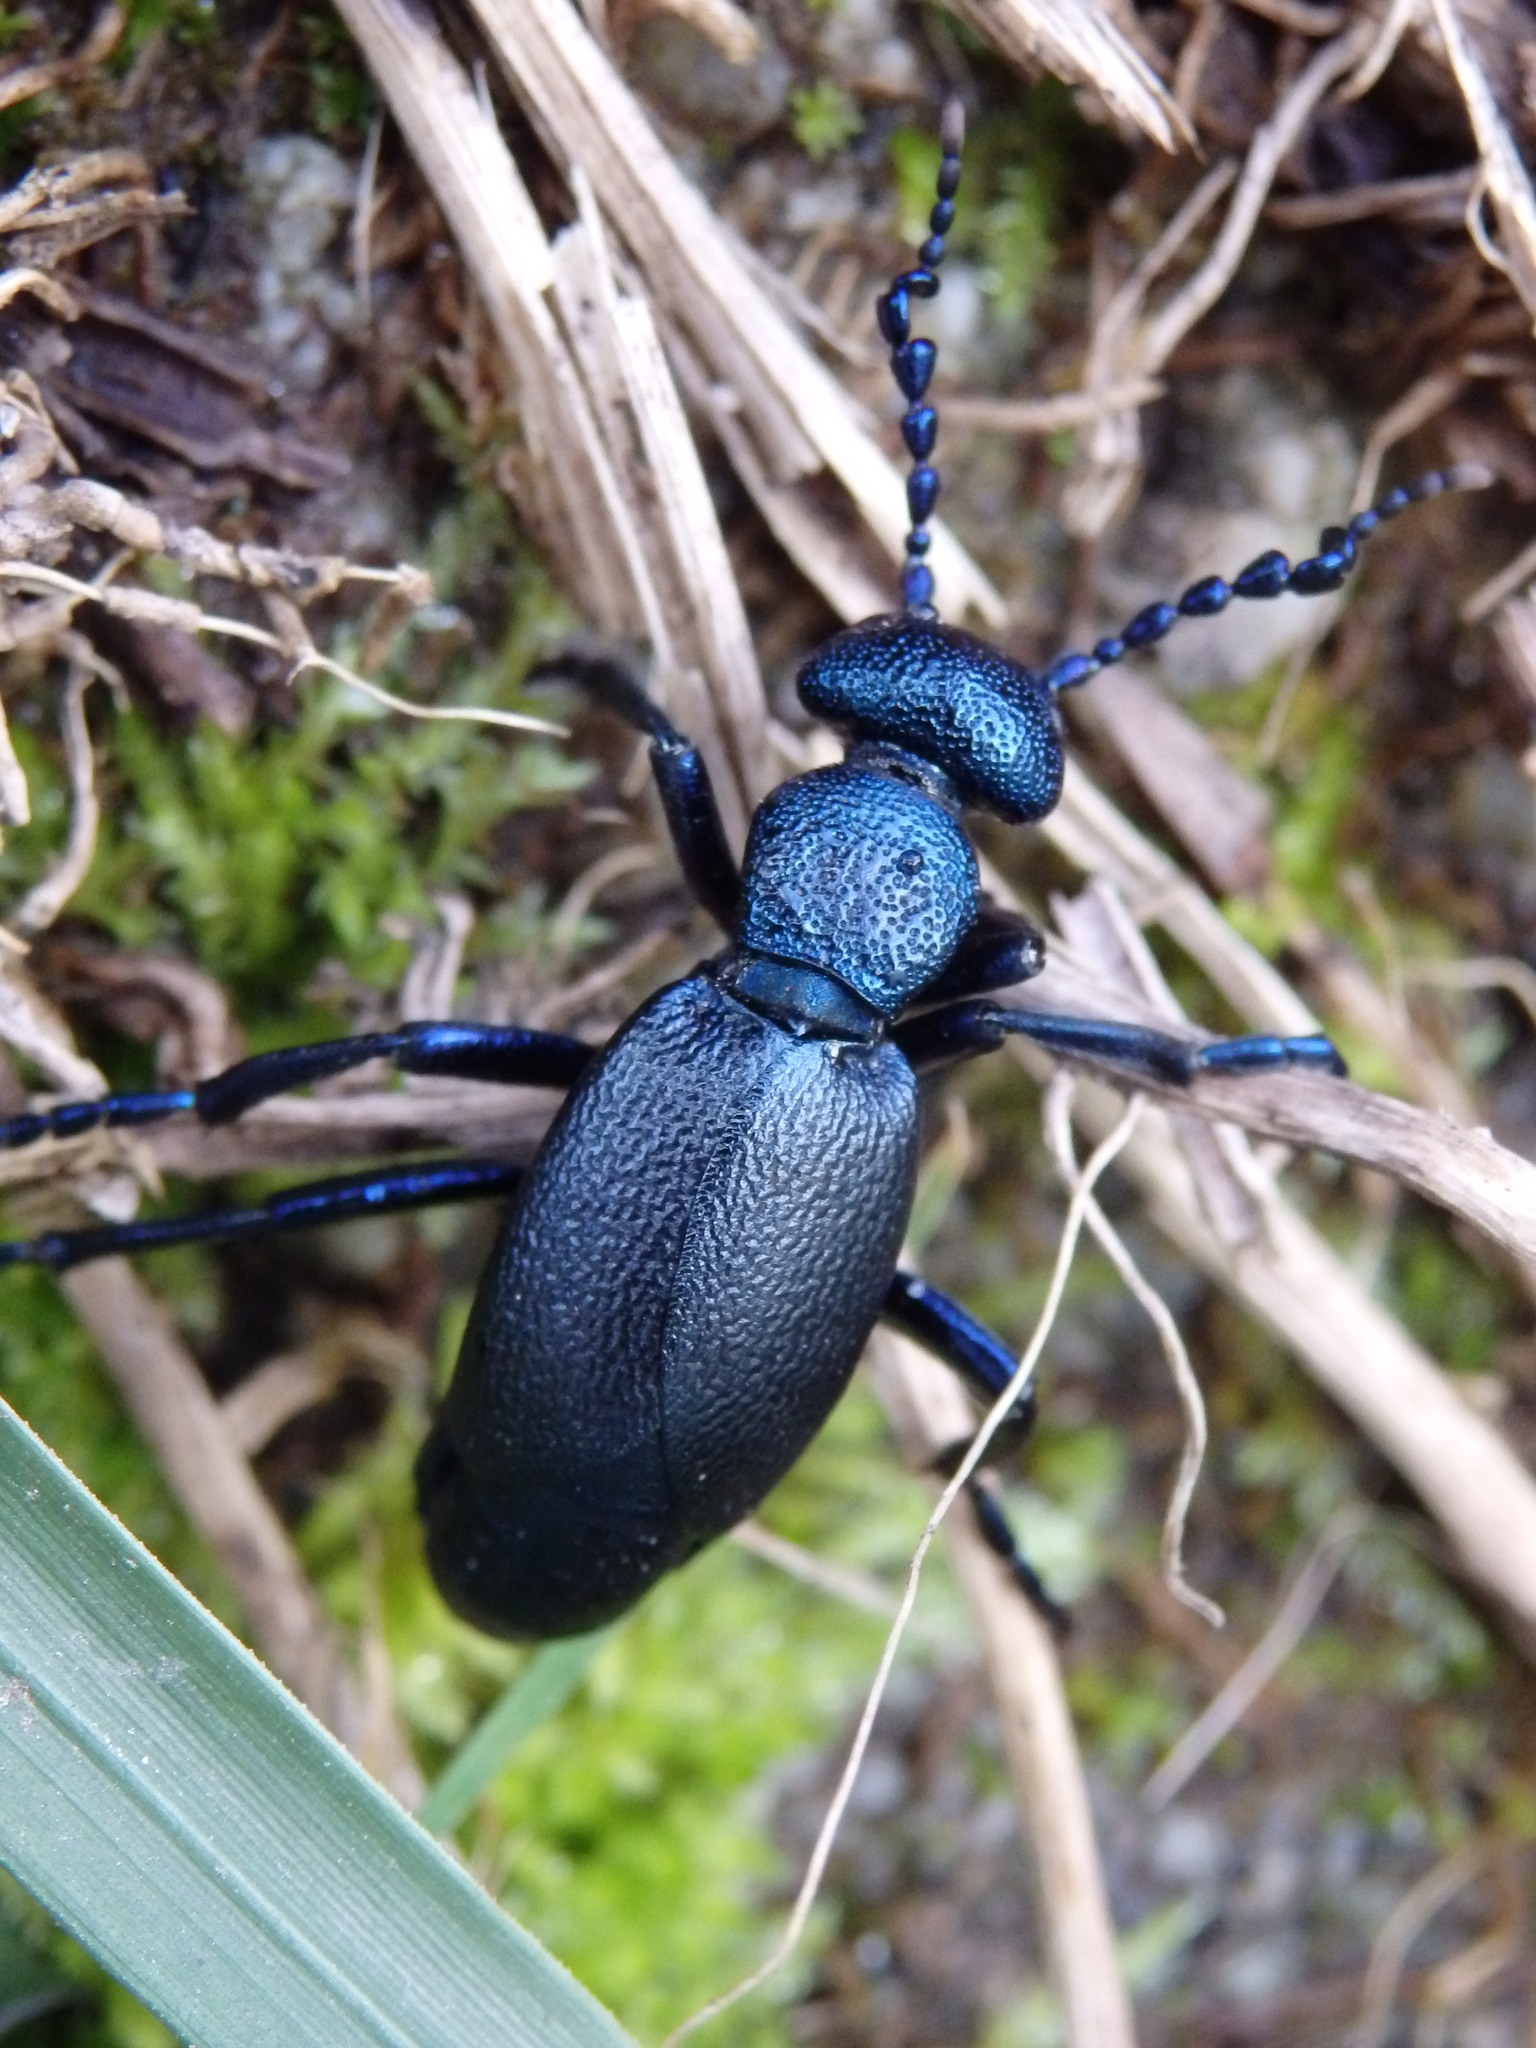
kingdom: Animalia
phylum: Arthropoda
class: Insecta
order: Coleoptera
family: Meloidae
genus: Meloe
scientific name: Meloe proscarabaeus
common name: Black oil-beetle
